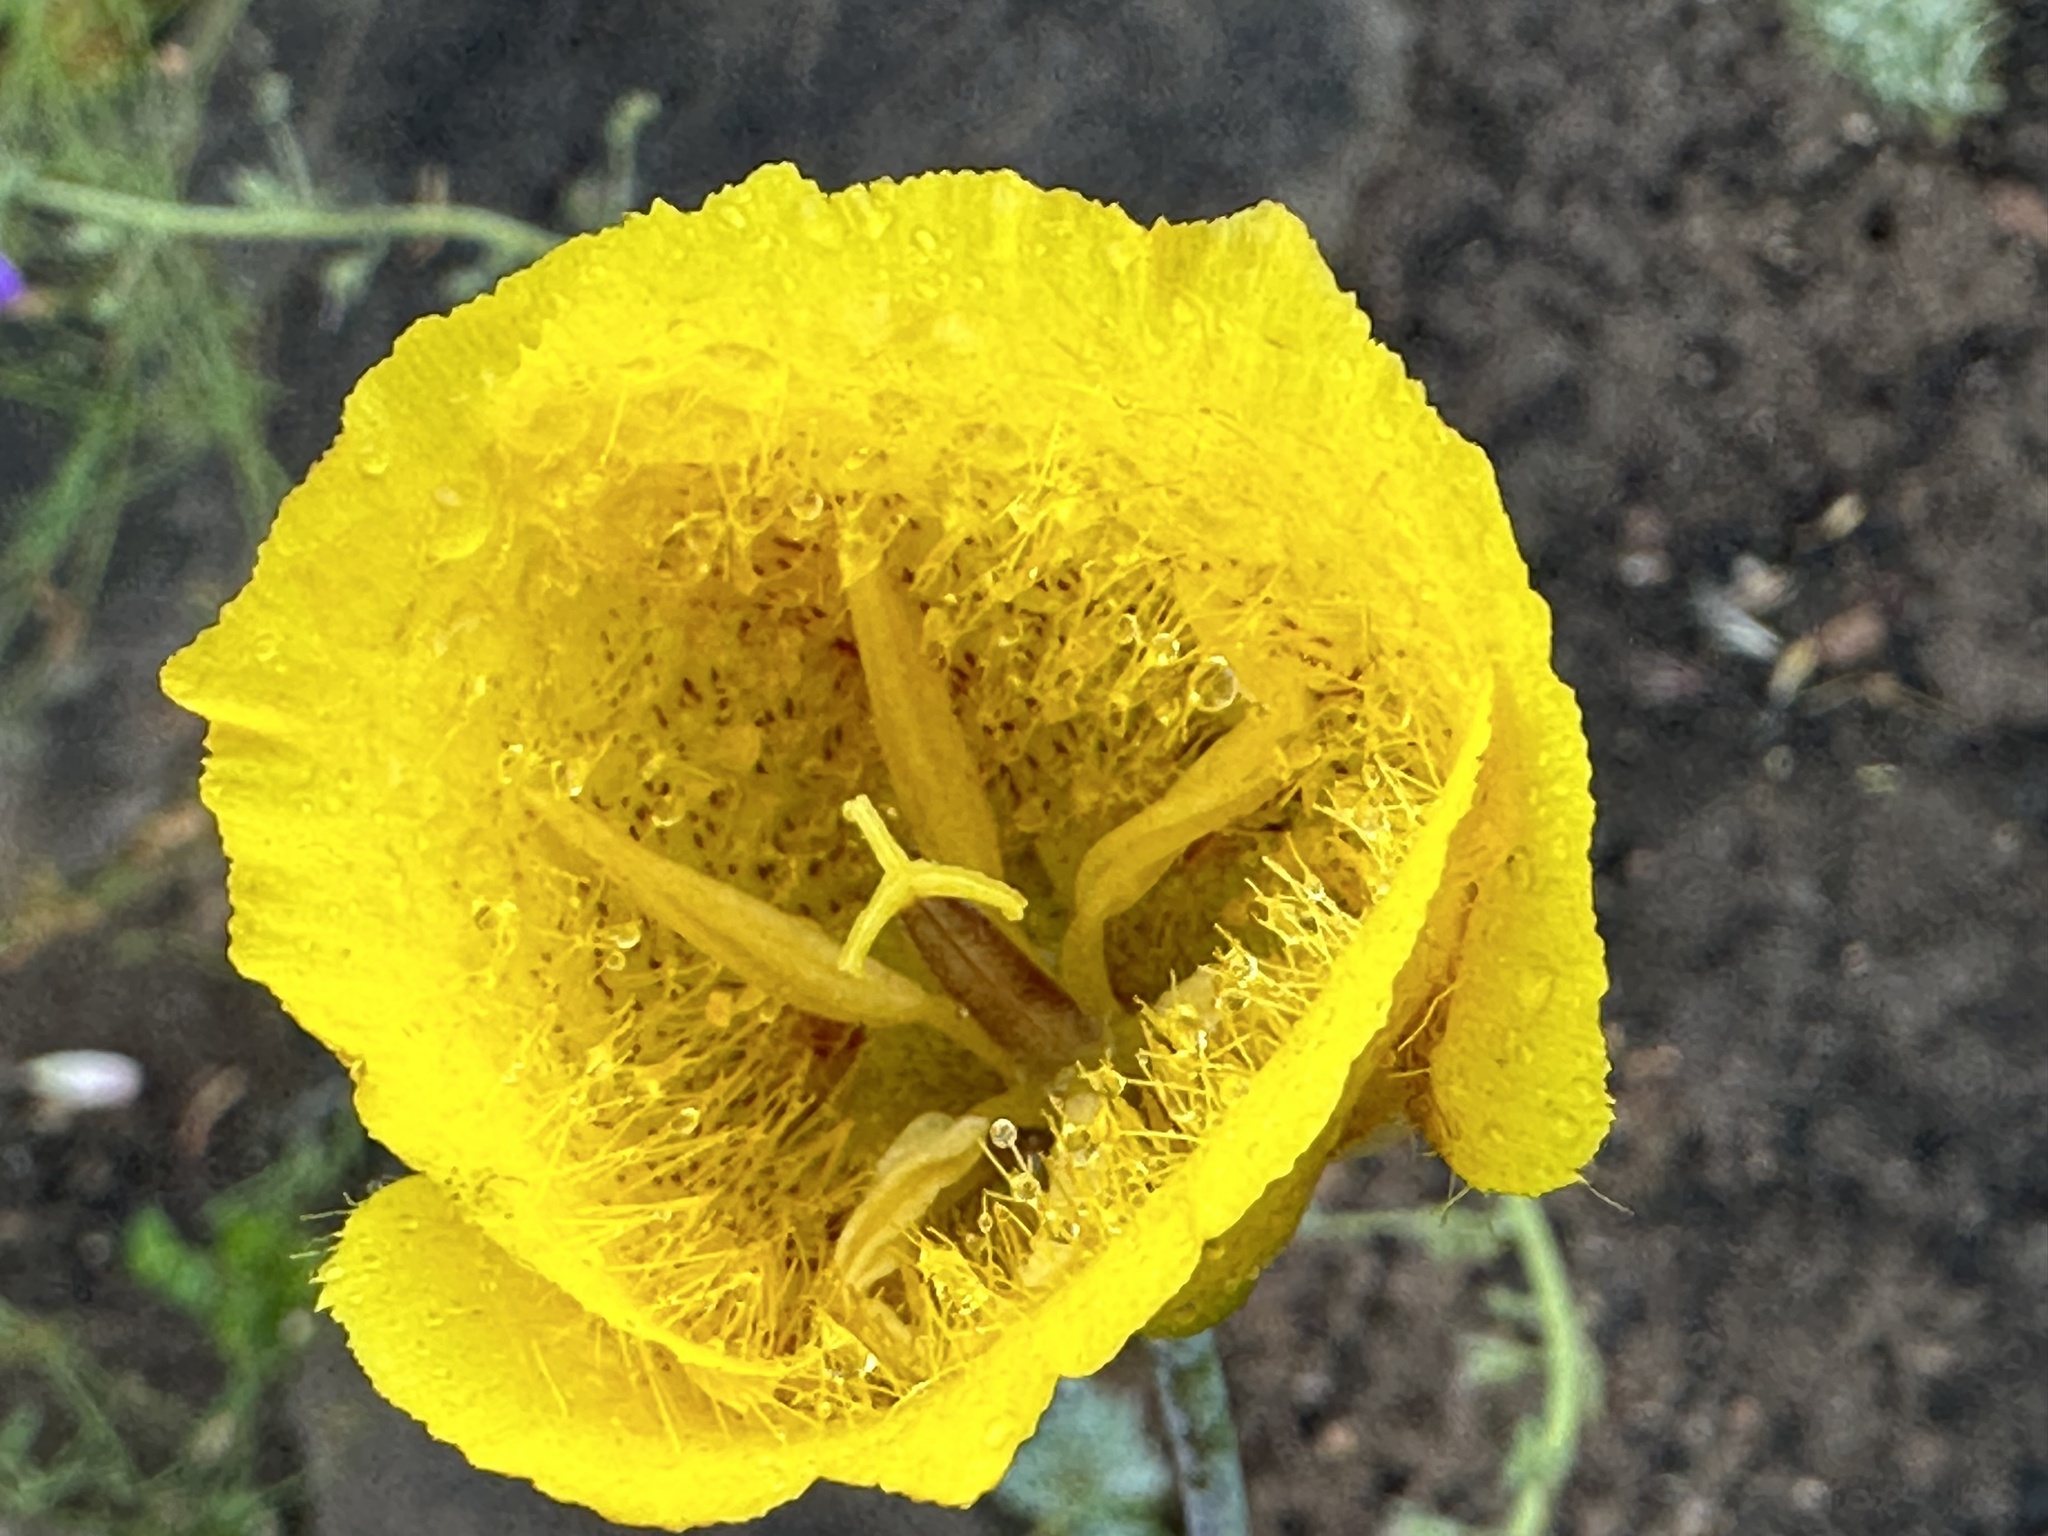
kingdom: Plantae
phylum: Tracheophyta
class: Liliopsida
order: Liliales
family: Liliaceae
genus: Calochortus
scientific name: Calochortus weedii
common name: Weed's mariposa-lily
